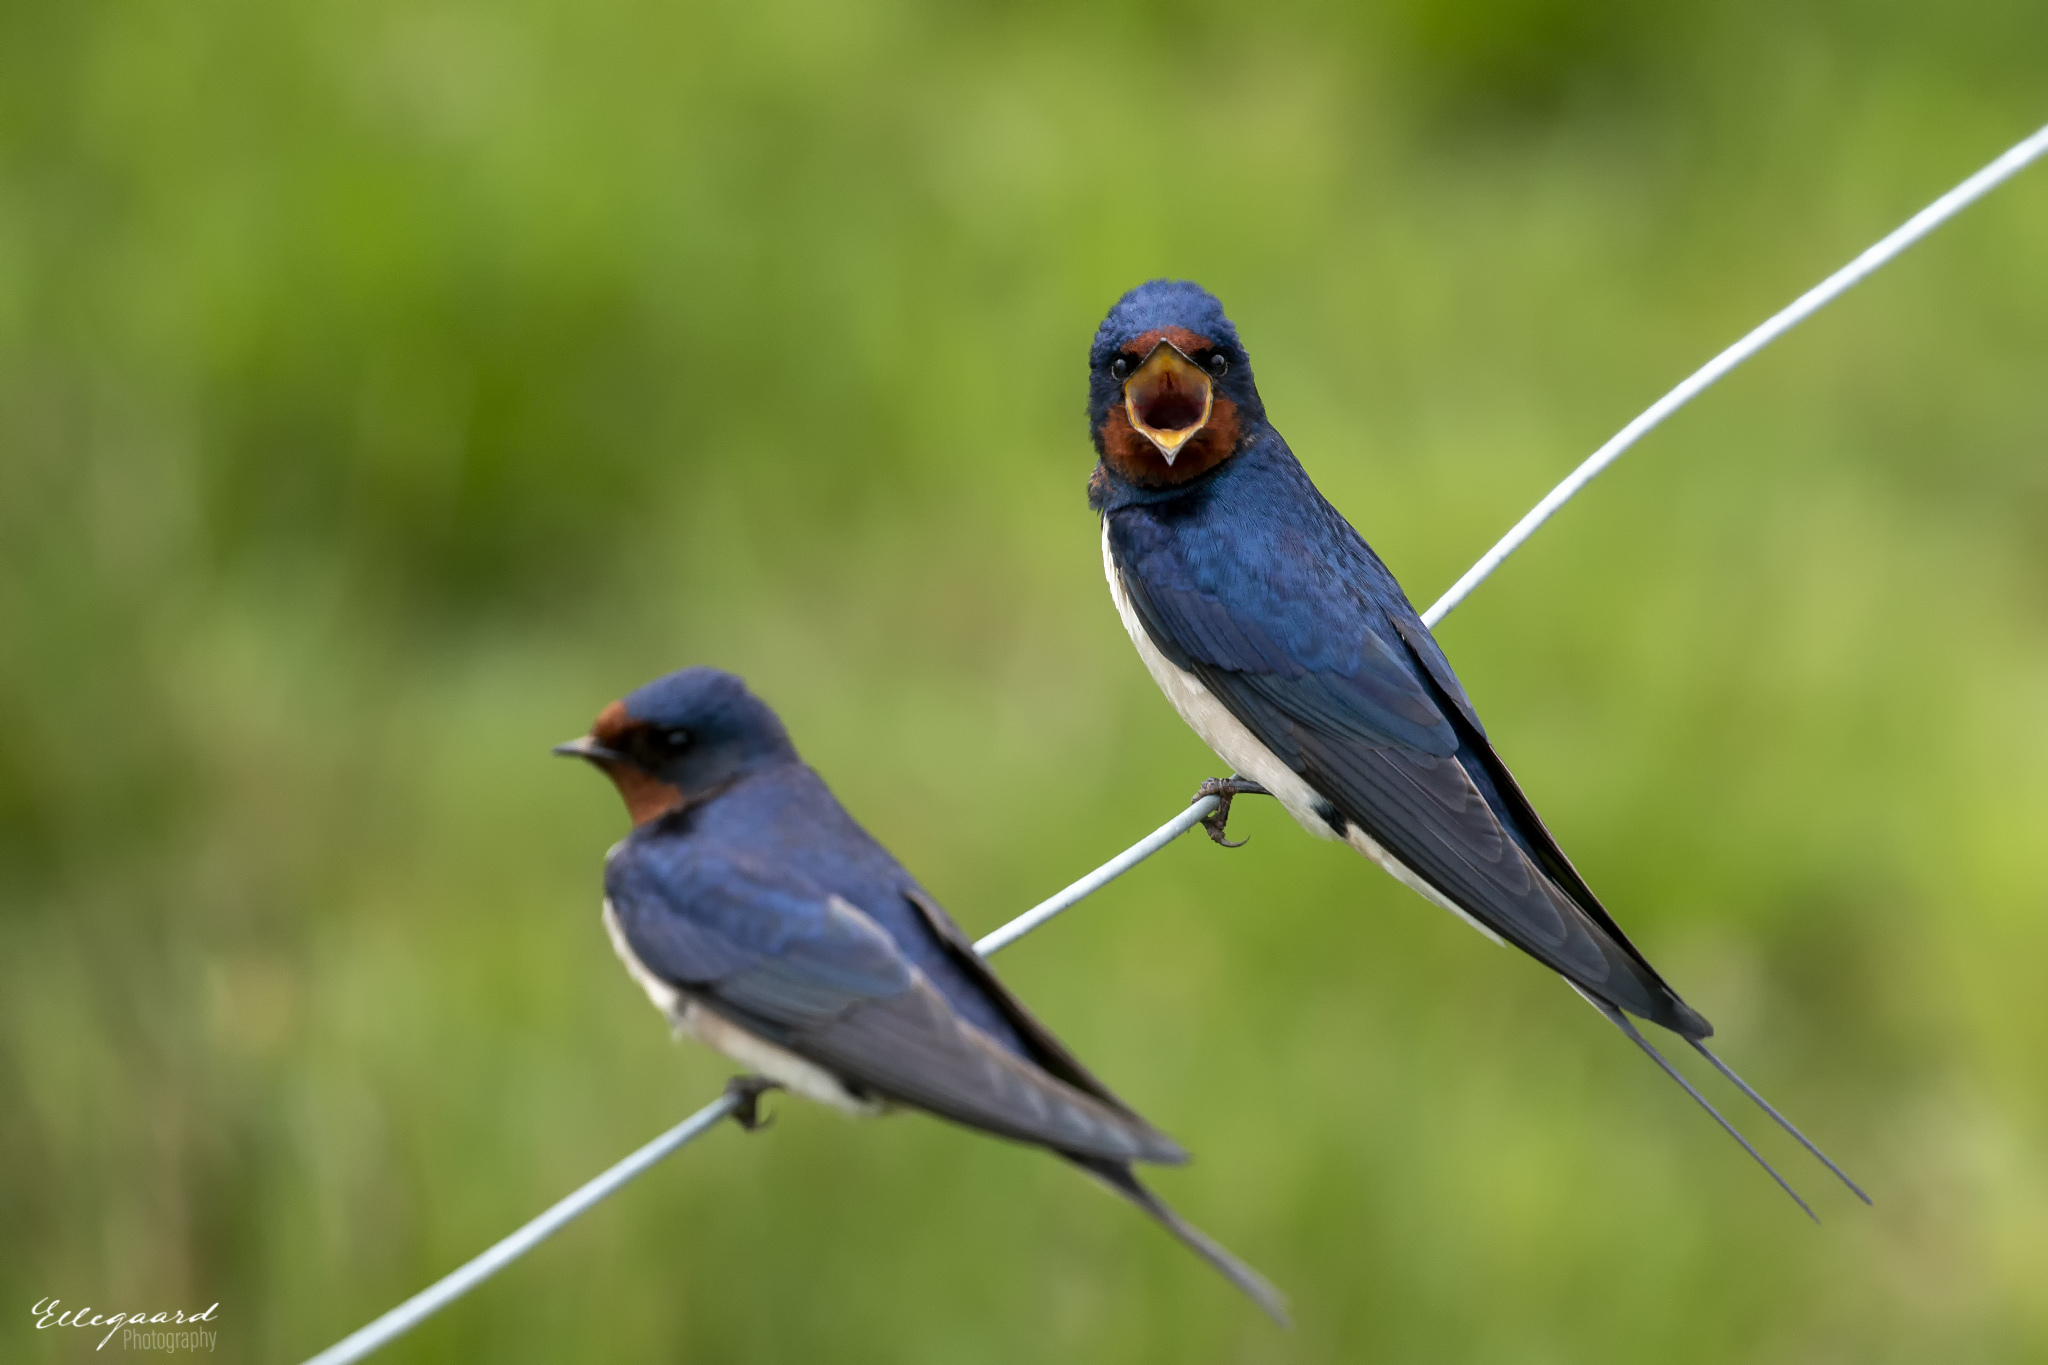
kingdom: Animalia
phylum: Chordata
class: Aves
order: Passeriformes
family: Hirundinidae
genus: Hirundo
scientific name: Hirundo rustica
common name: Barn swallow
